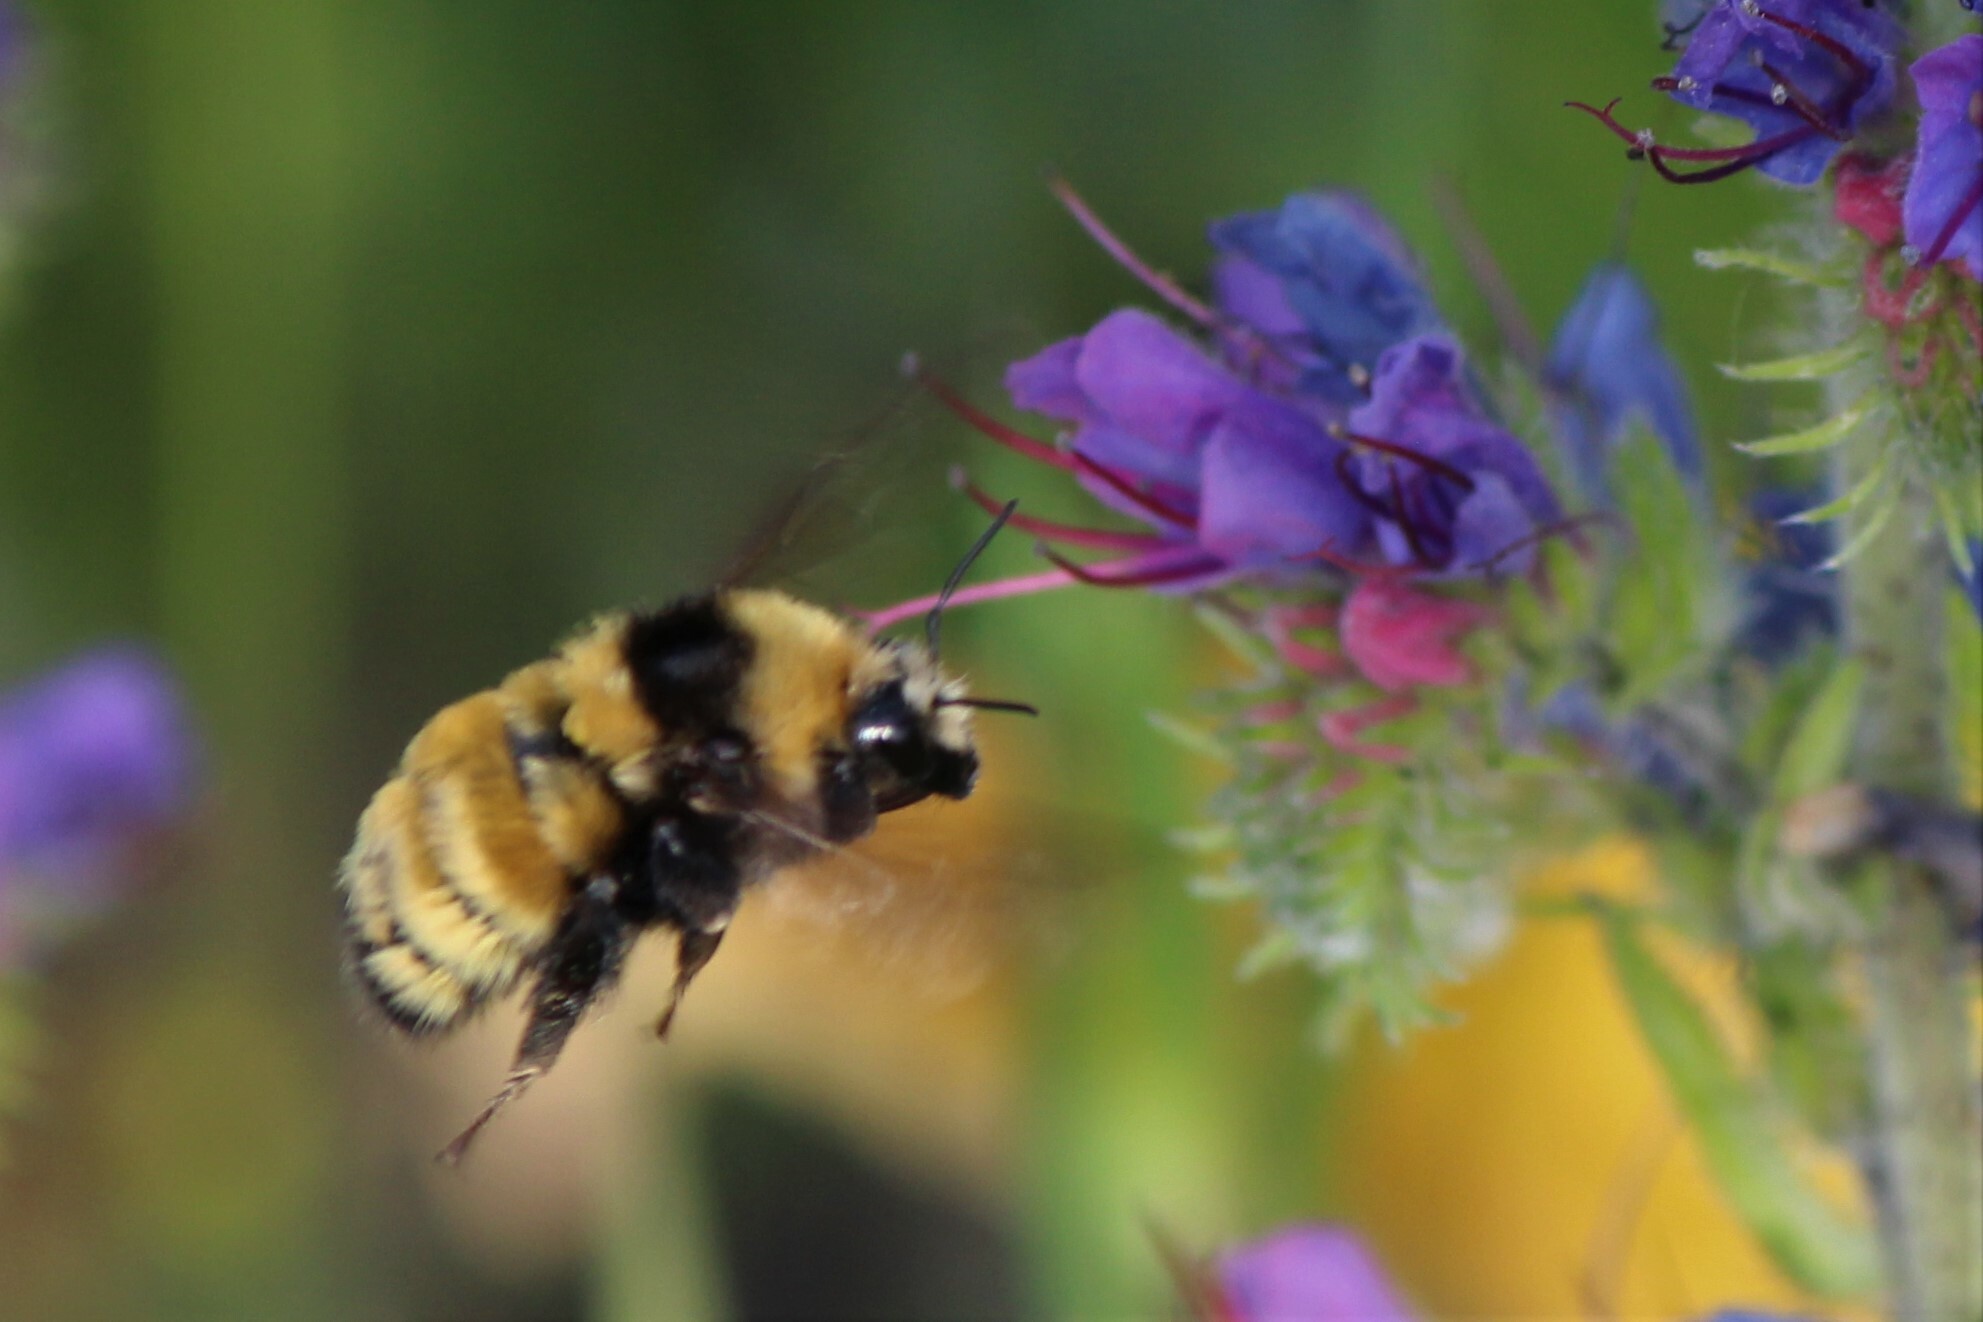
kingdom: Animalia
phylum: Arthropoda
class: Insecta
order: Hymenoptera
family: Apidae
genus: Bombus
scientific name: Bombus borealis
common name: Northern amber bumble bee
